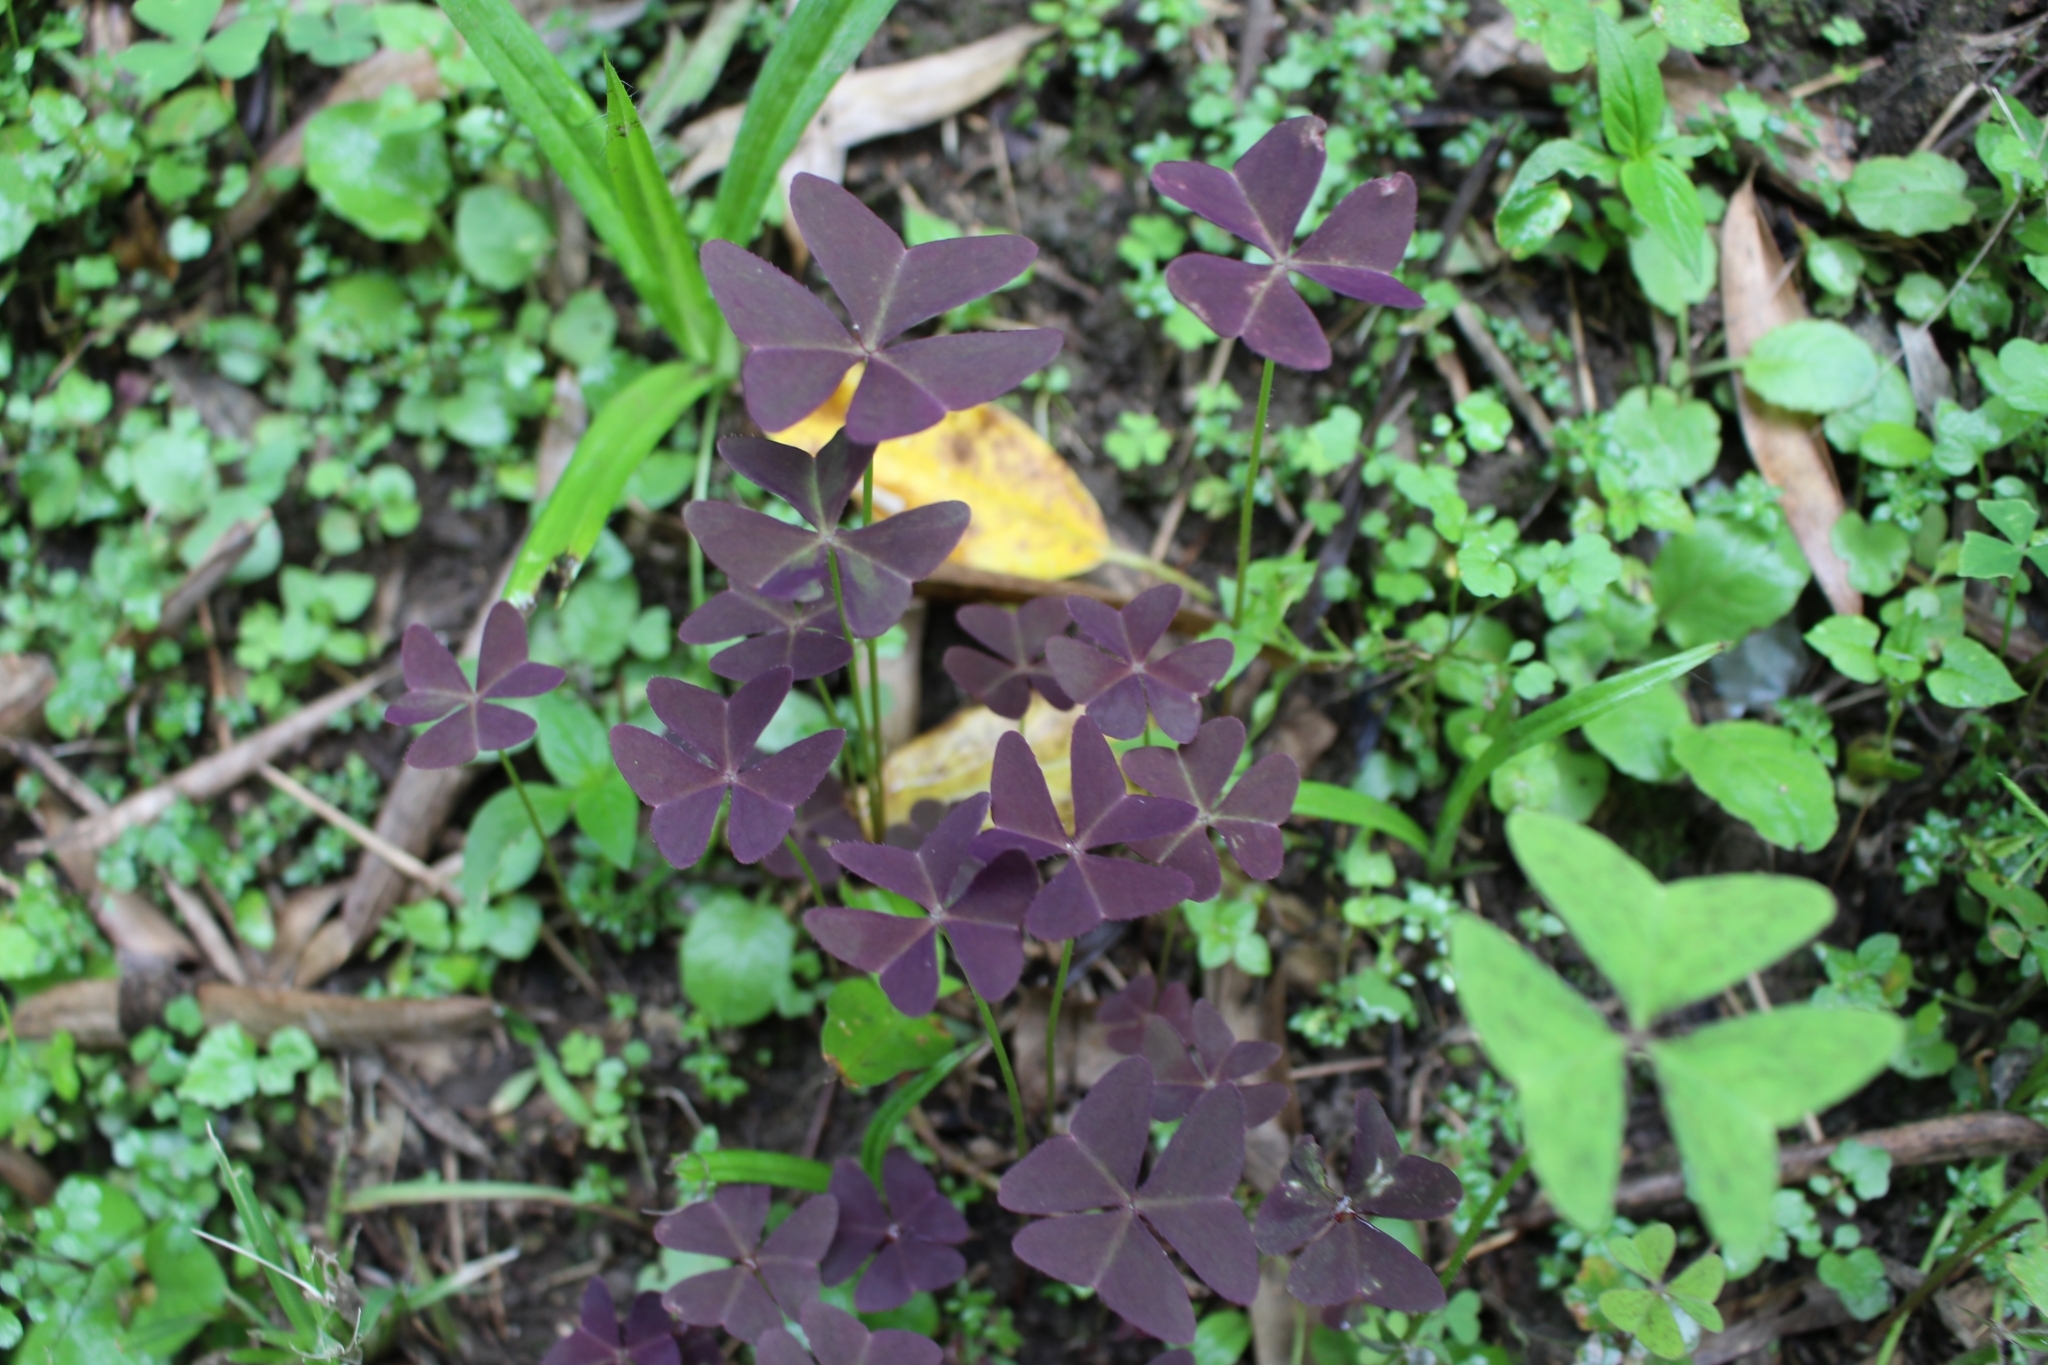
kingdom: Plantae
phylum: Tracheophyta
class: Magnoliopsida
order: Oxalidales
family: Oxalidaceae
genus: Oxalis
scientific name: Oxalis latifolia
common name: Garden pink-sorrel
